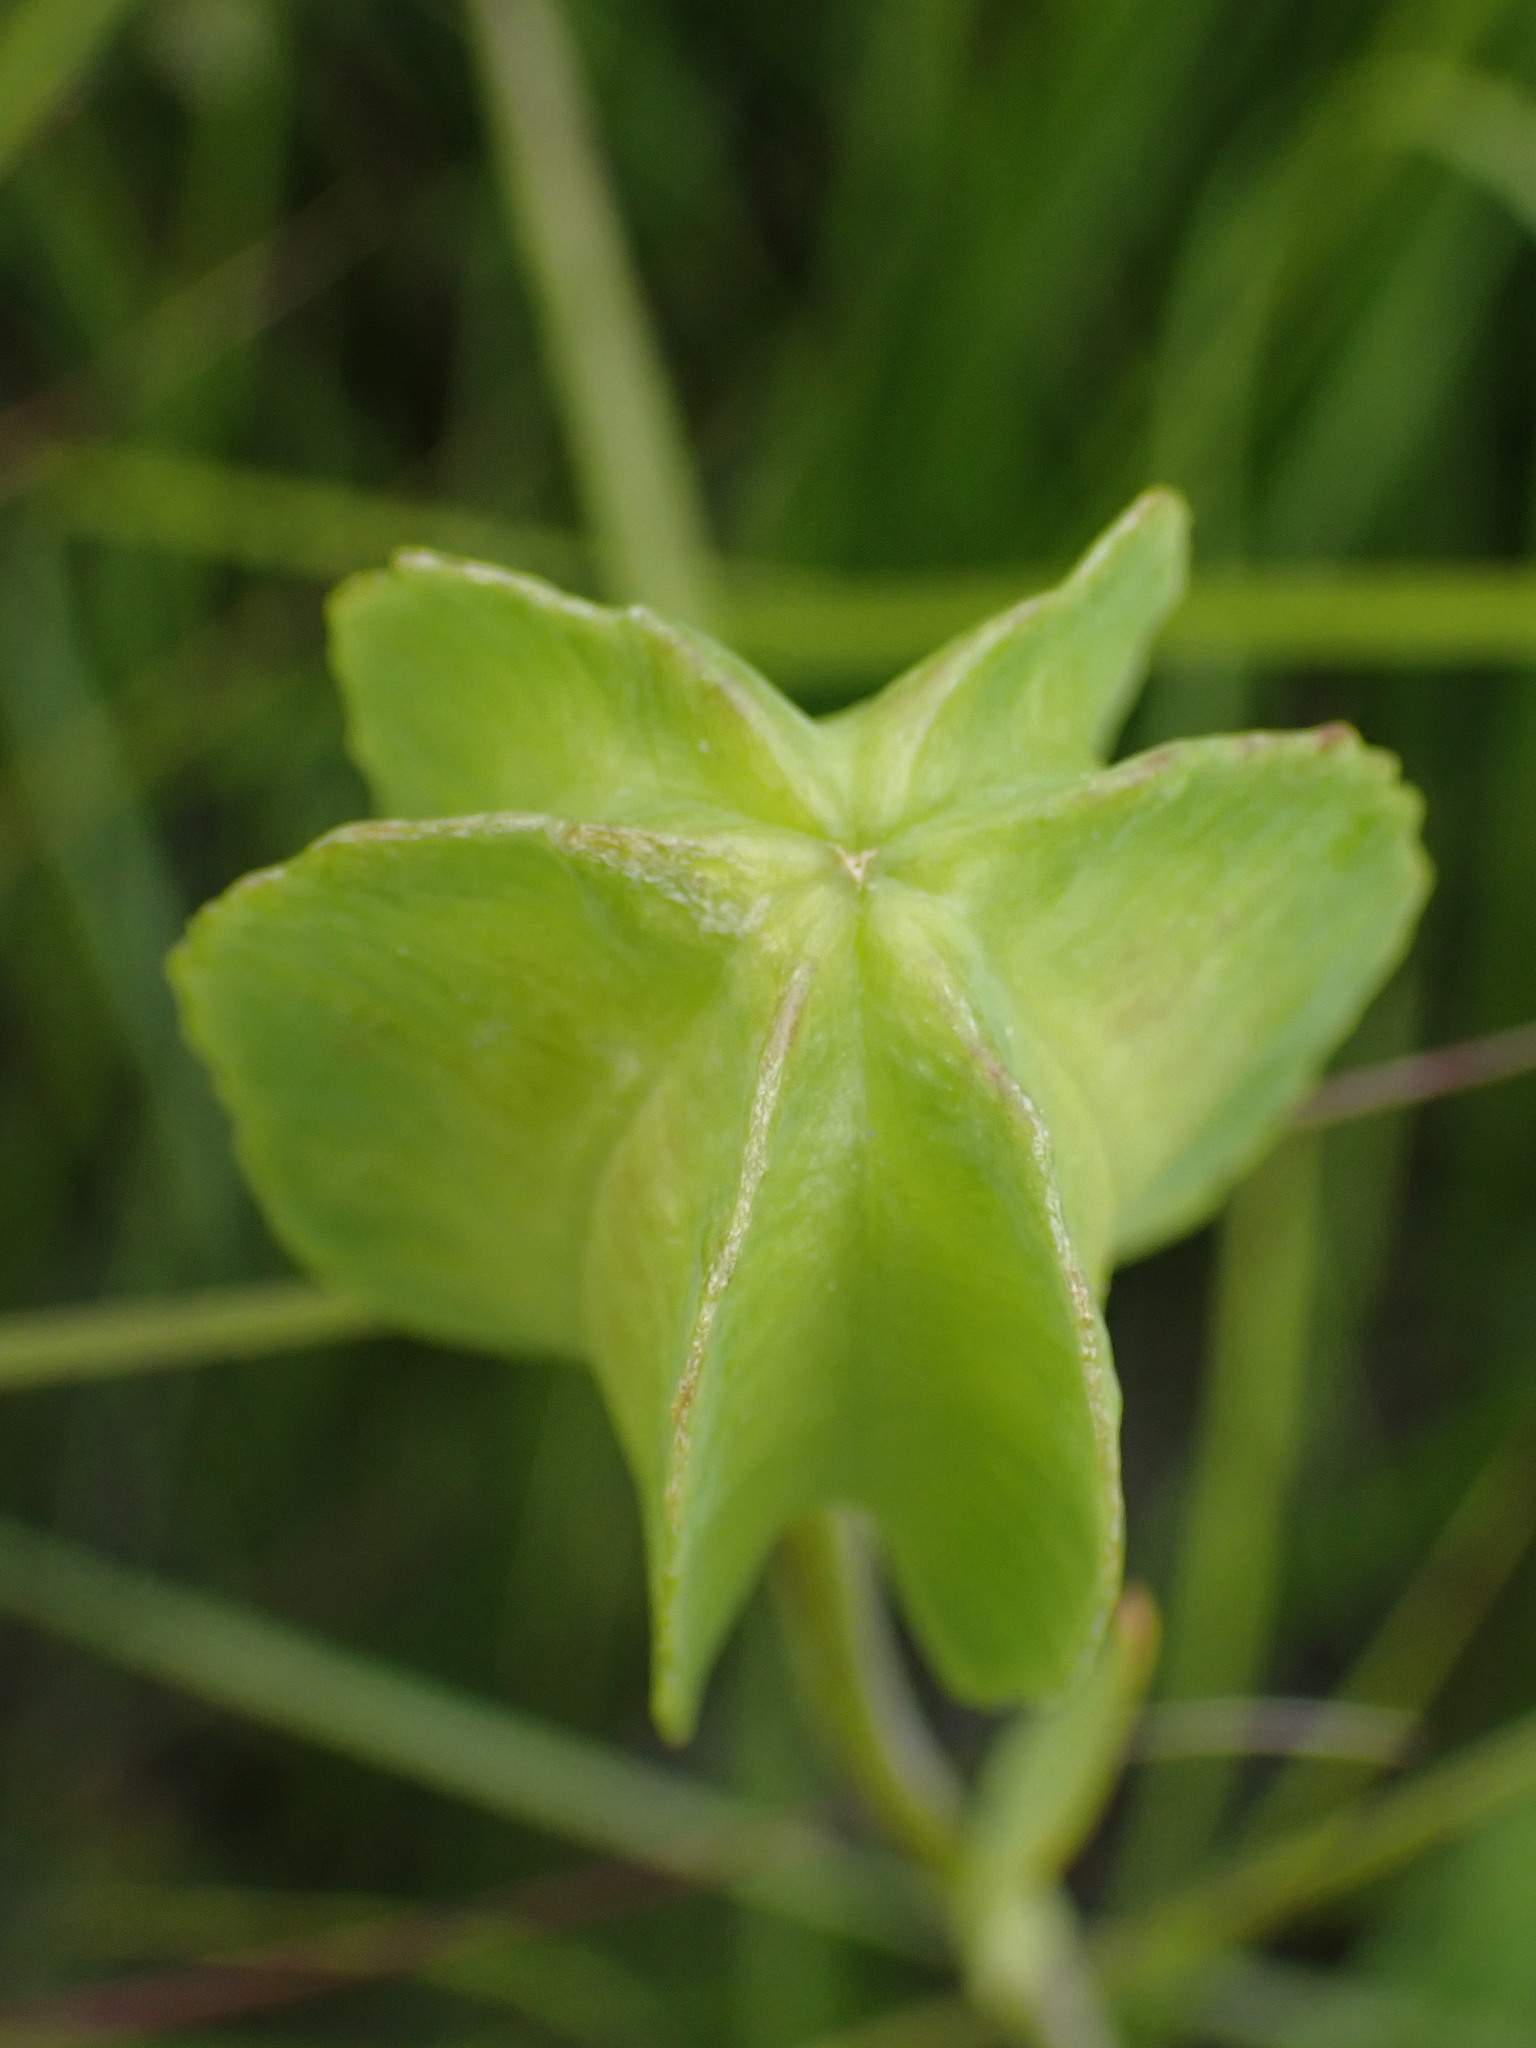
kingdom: Plantae
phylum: Tracheophyta
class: Liliopsida
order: Liliales
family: Liliaceae
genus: Fritillaria
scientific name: Fritillaria affinis
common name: Ojai fritillary
